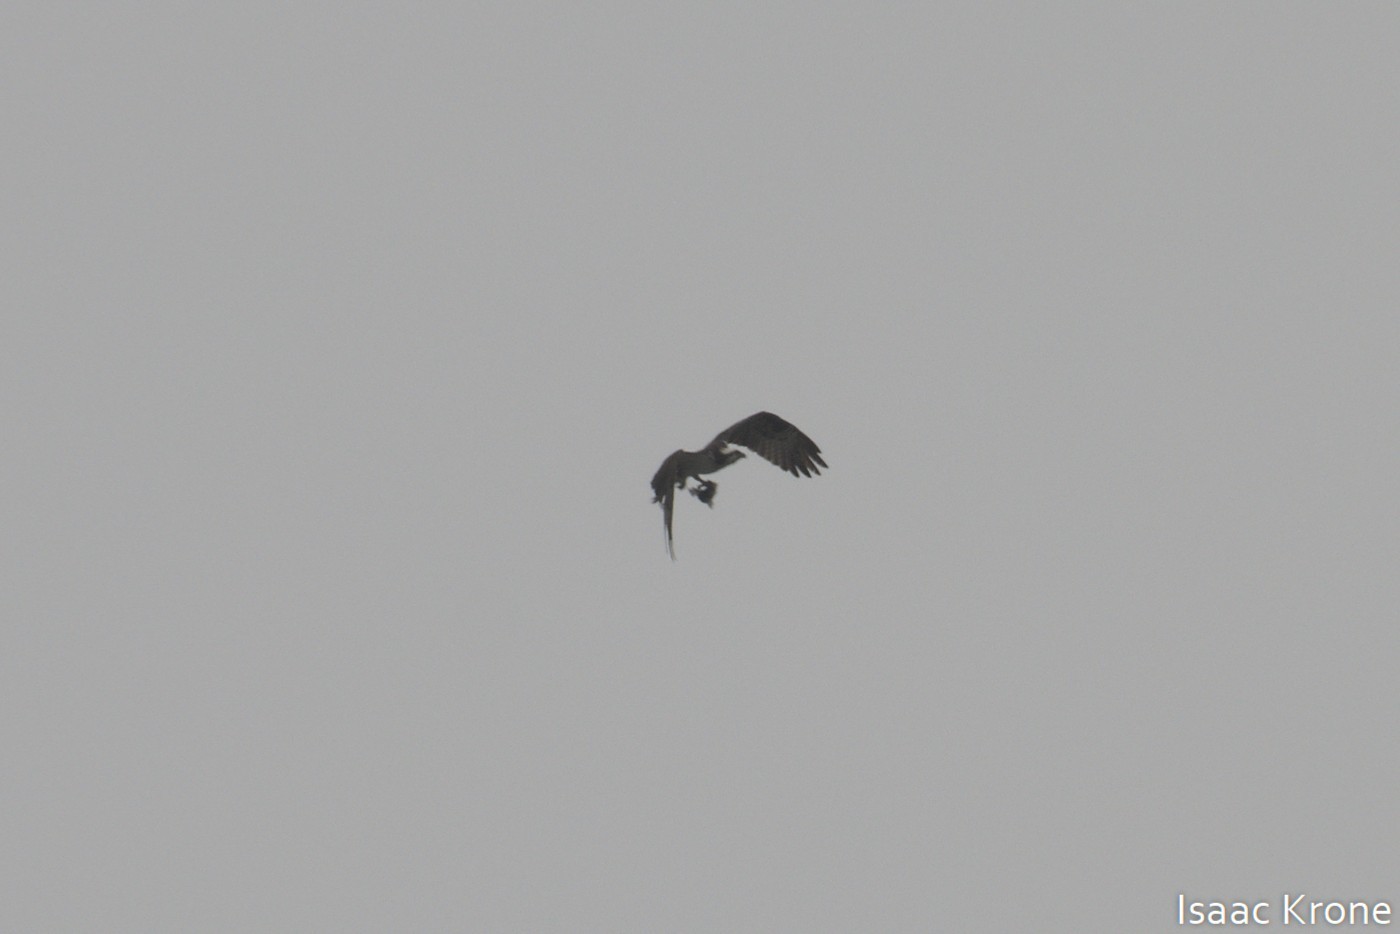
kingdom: Animalia
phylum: Chordata
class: Aves
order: Accipitriformes
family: Pandionidae
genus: Pandion
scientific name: Pandion haliaetus
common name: Osprey
